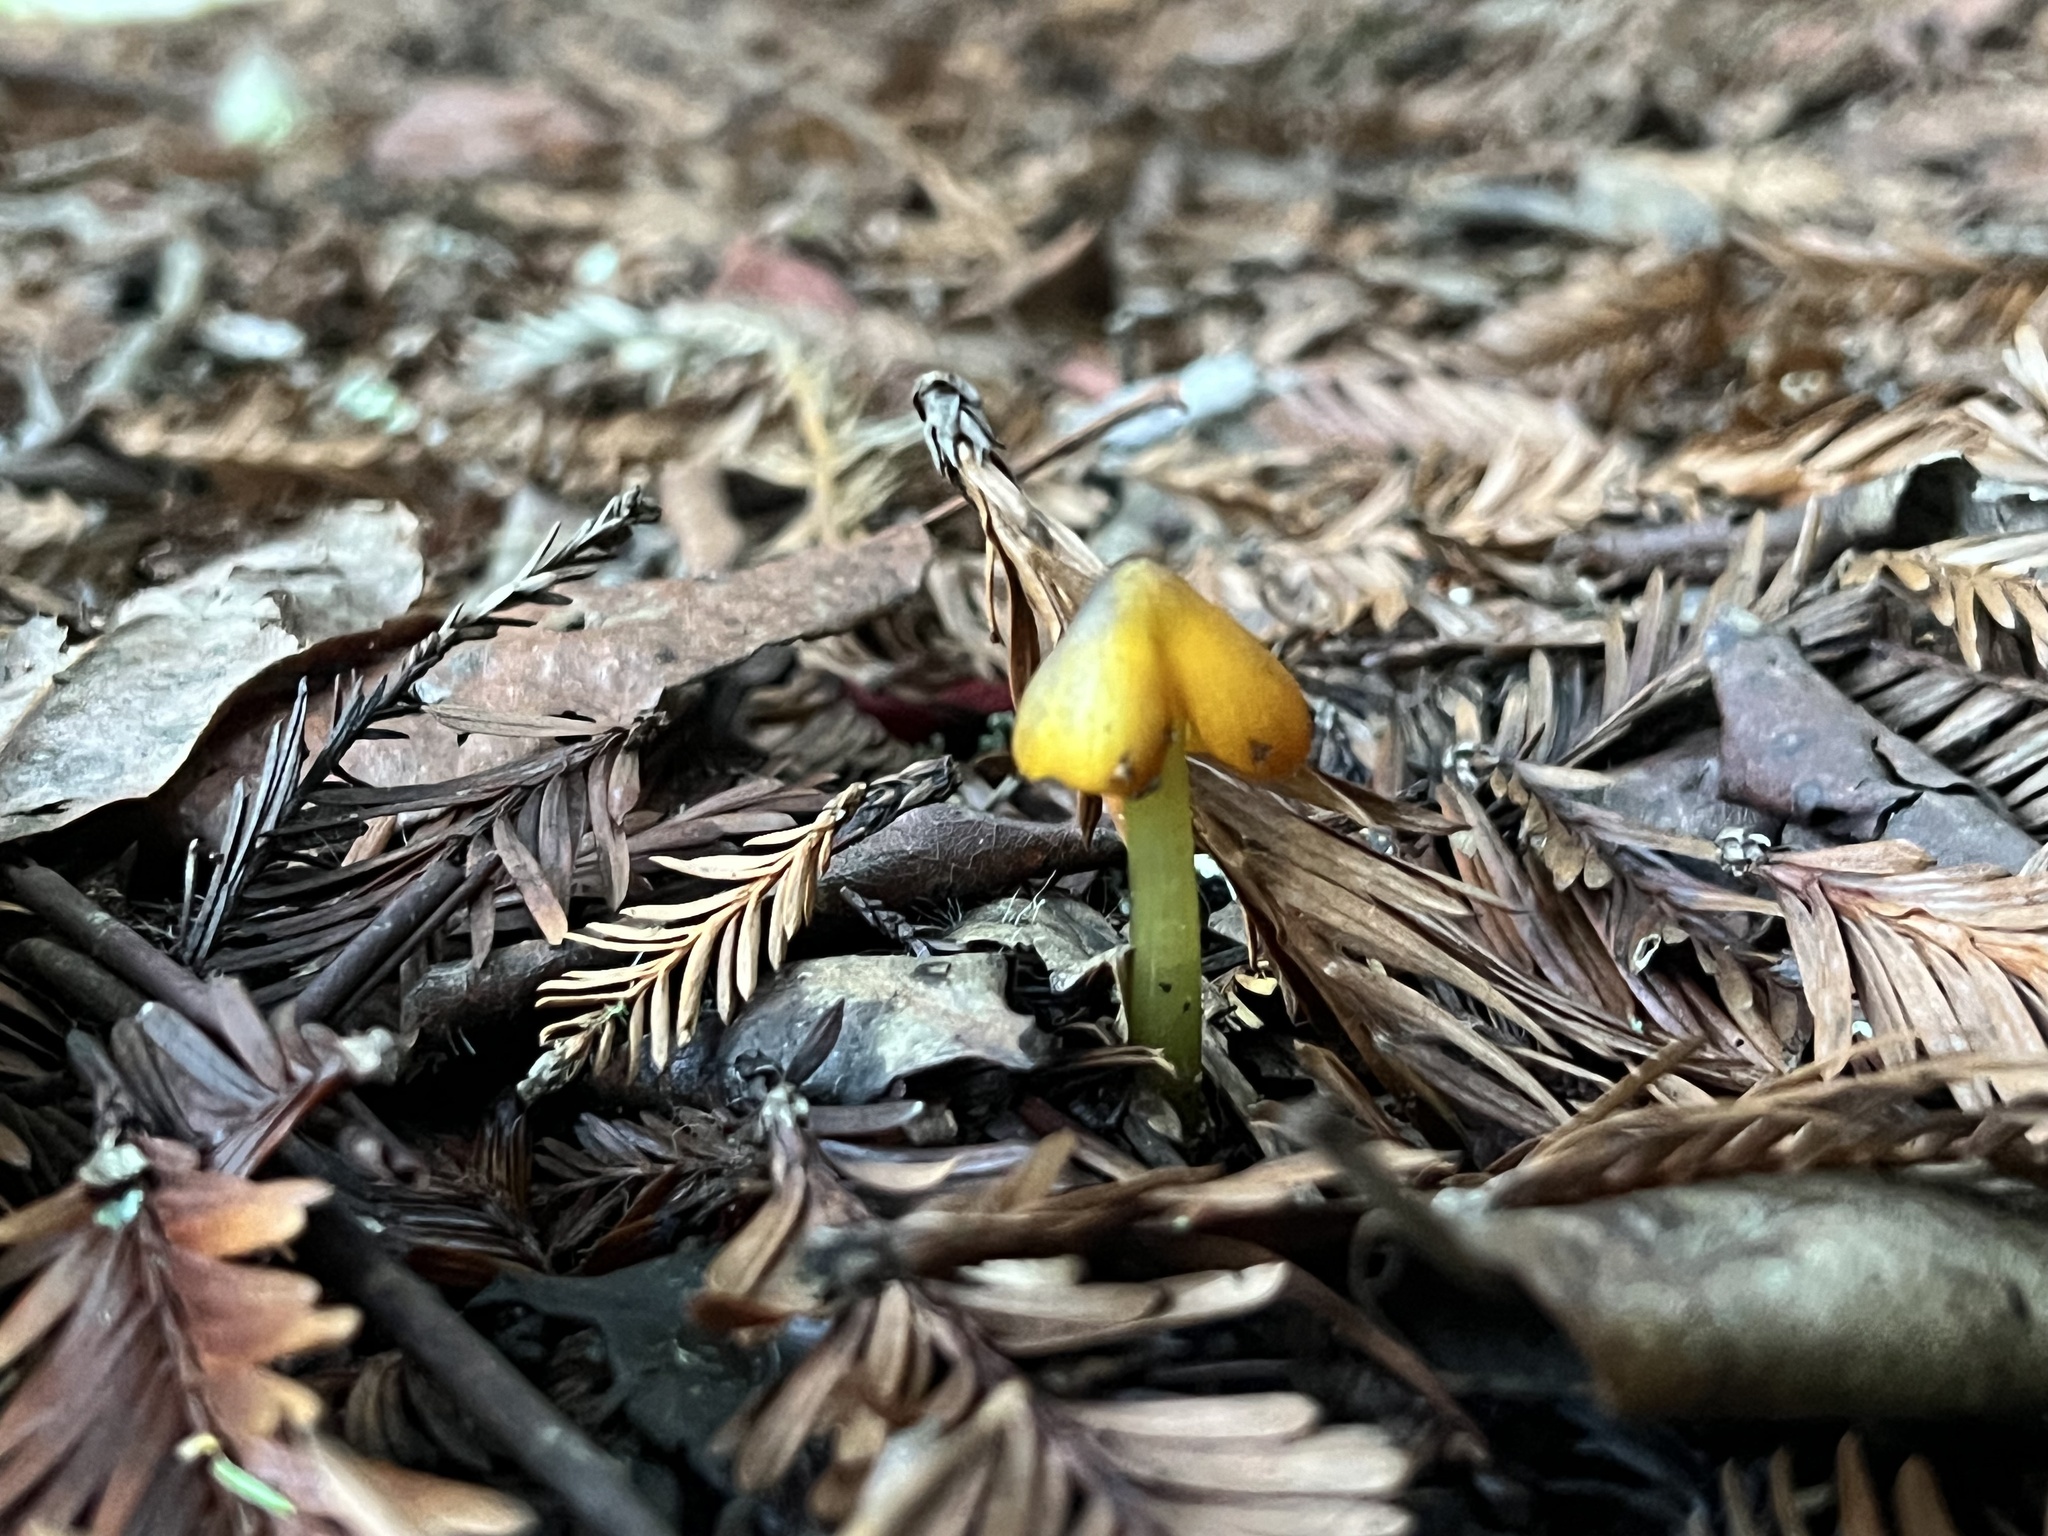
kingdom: Fungi
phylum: Basidiomycota
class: Agaricomycetes
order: Agaricales
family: Hygrophoraceae
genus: Hygrocybe
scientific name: Hygrocybe singeri
